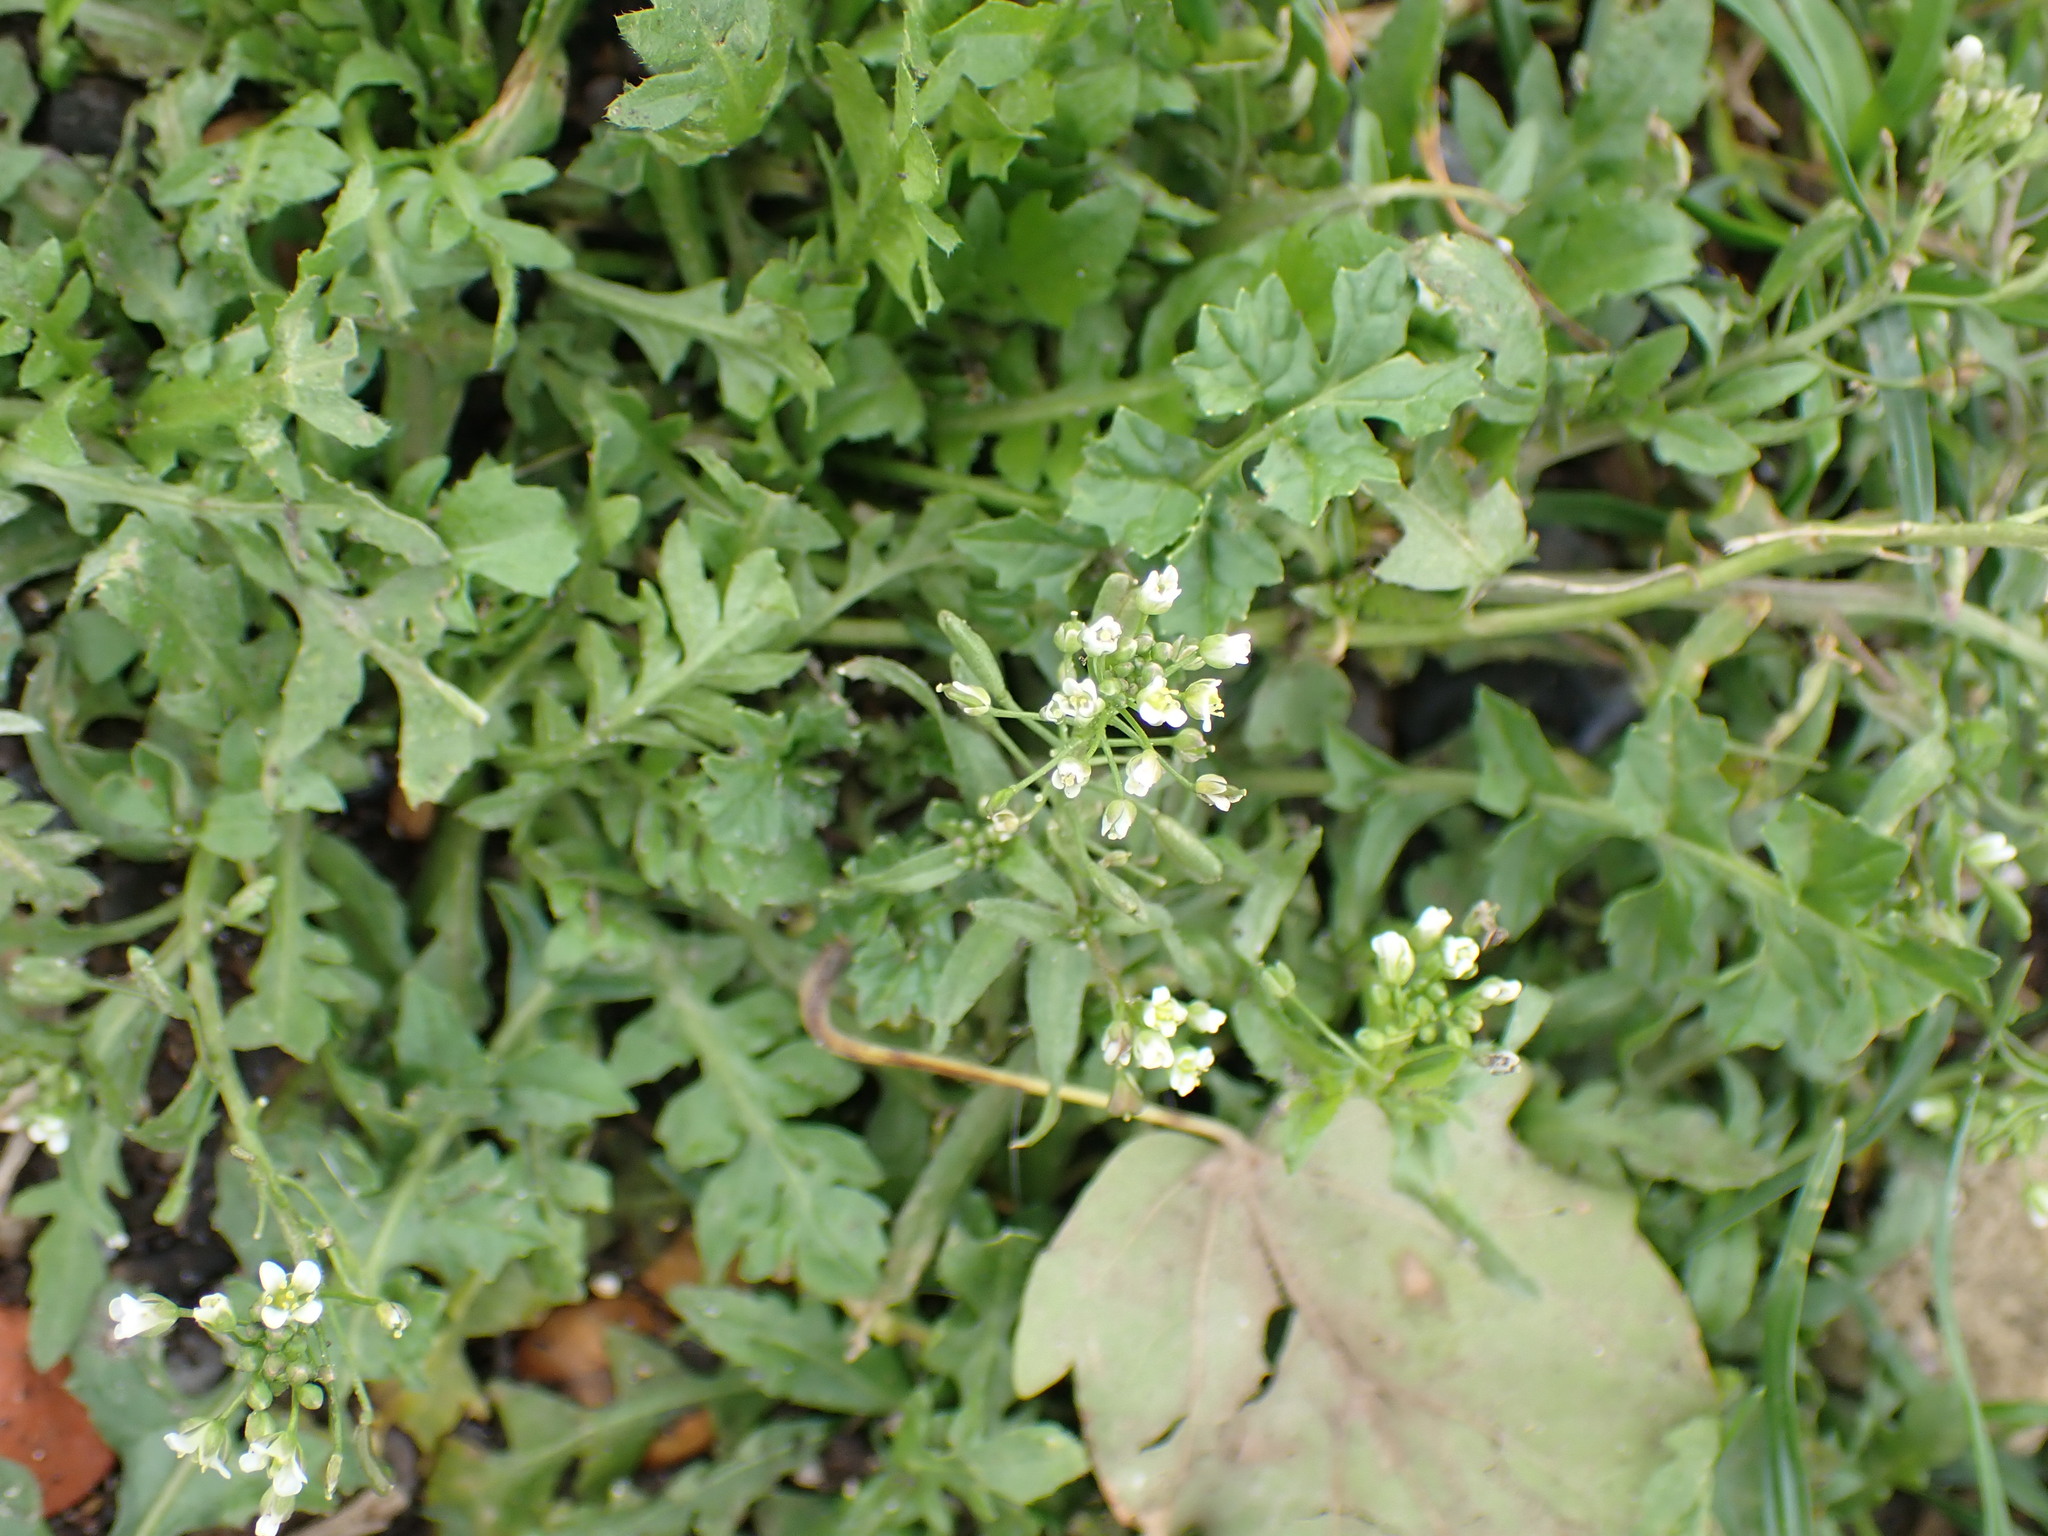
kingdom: Plantae
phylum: Tracheophyta
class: Magnoliopsida
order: Brassicales
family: Brassicaceae
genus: Capsella
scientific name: Capsella bursa-pastoris
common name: Shepherd's purse
